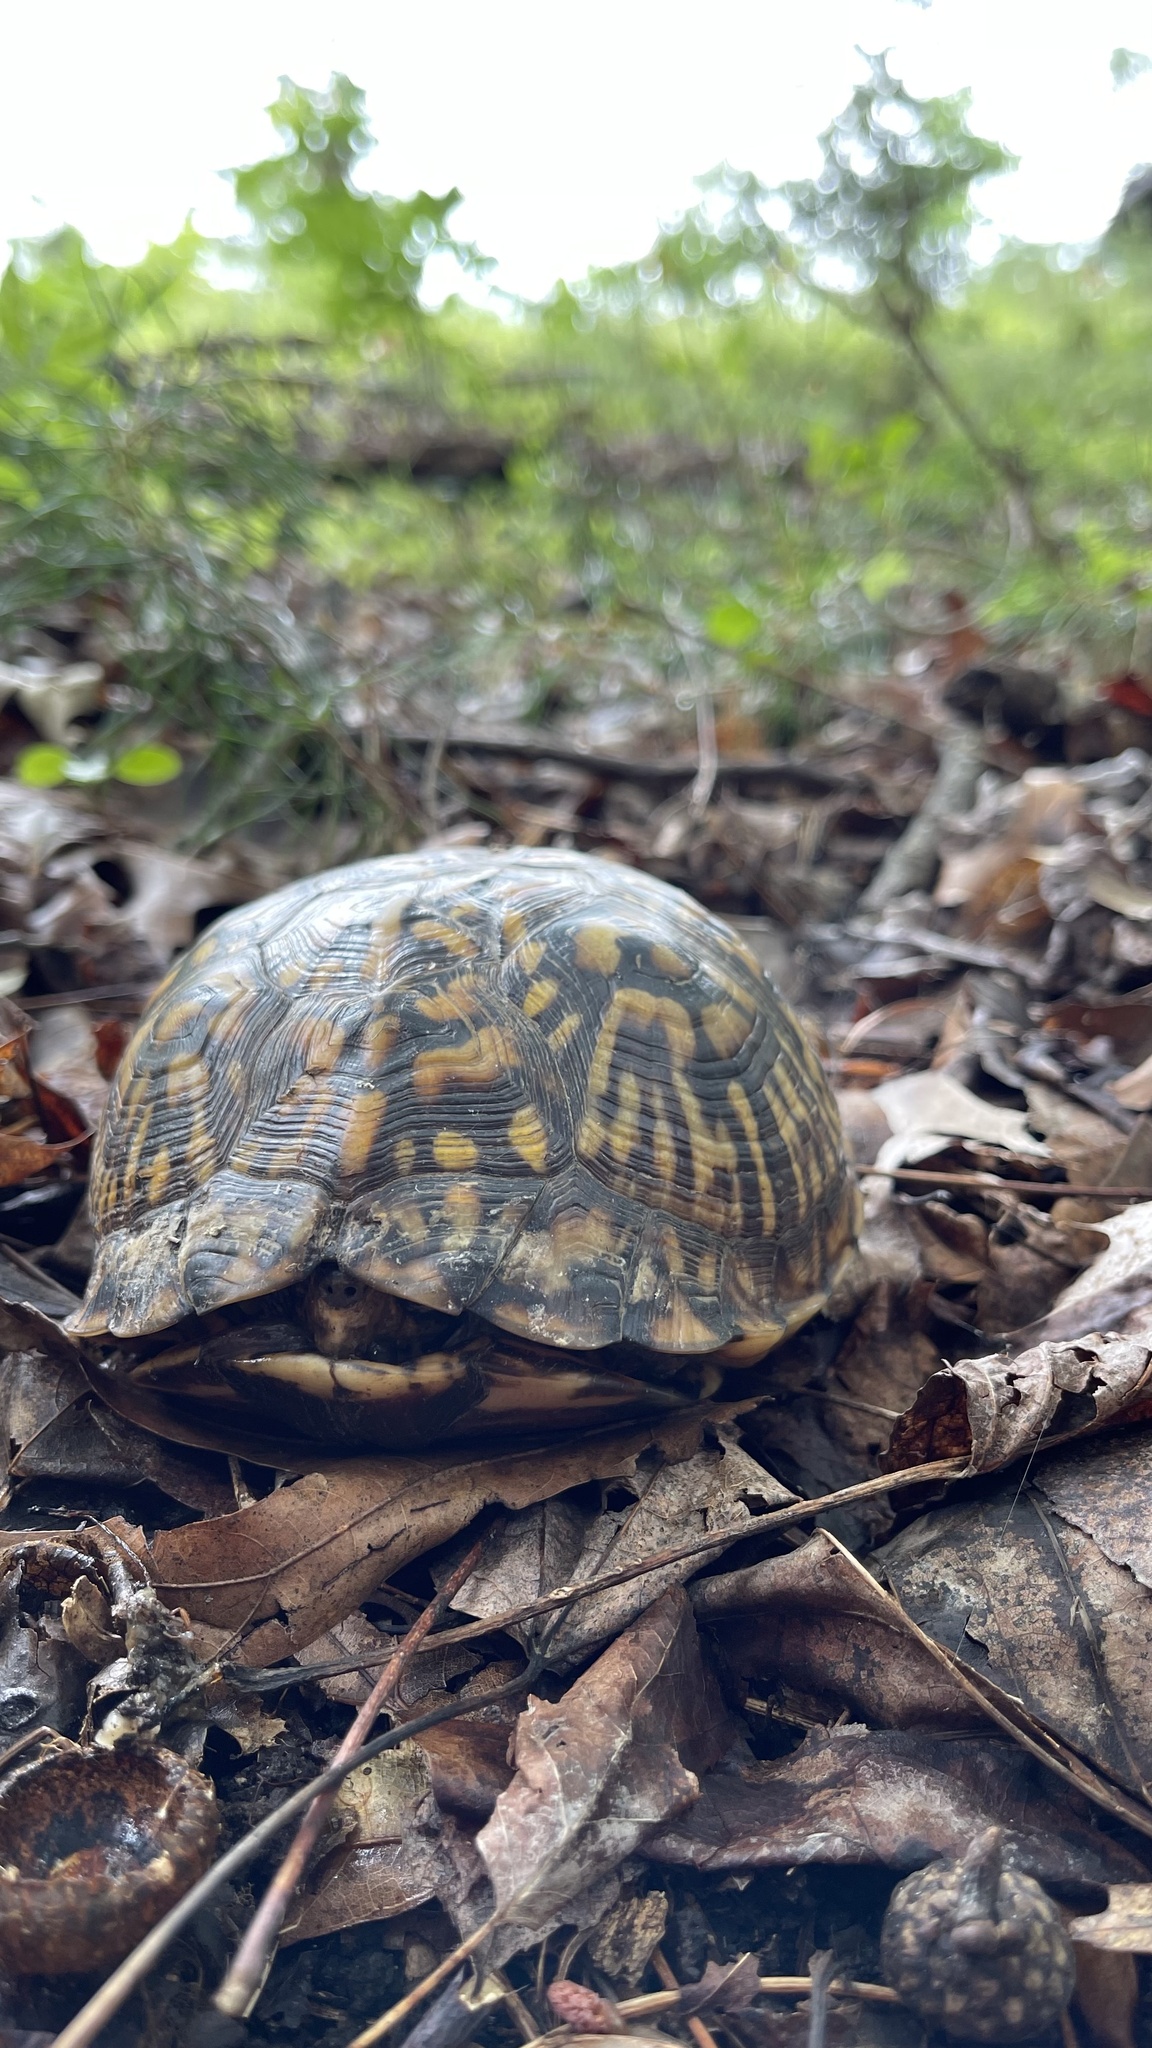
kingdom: Animalia
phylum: Chordata
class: Testudines
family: Emydidae
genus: Terrapene
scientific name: Terrapene carolina
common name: Common box turtle
